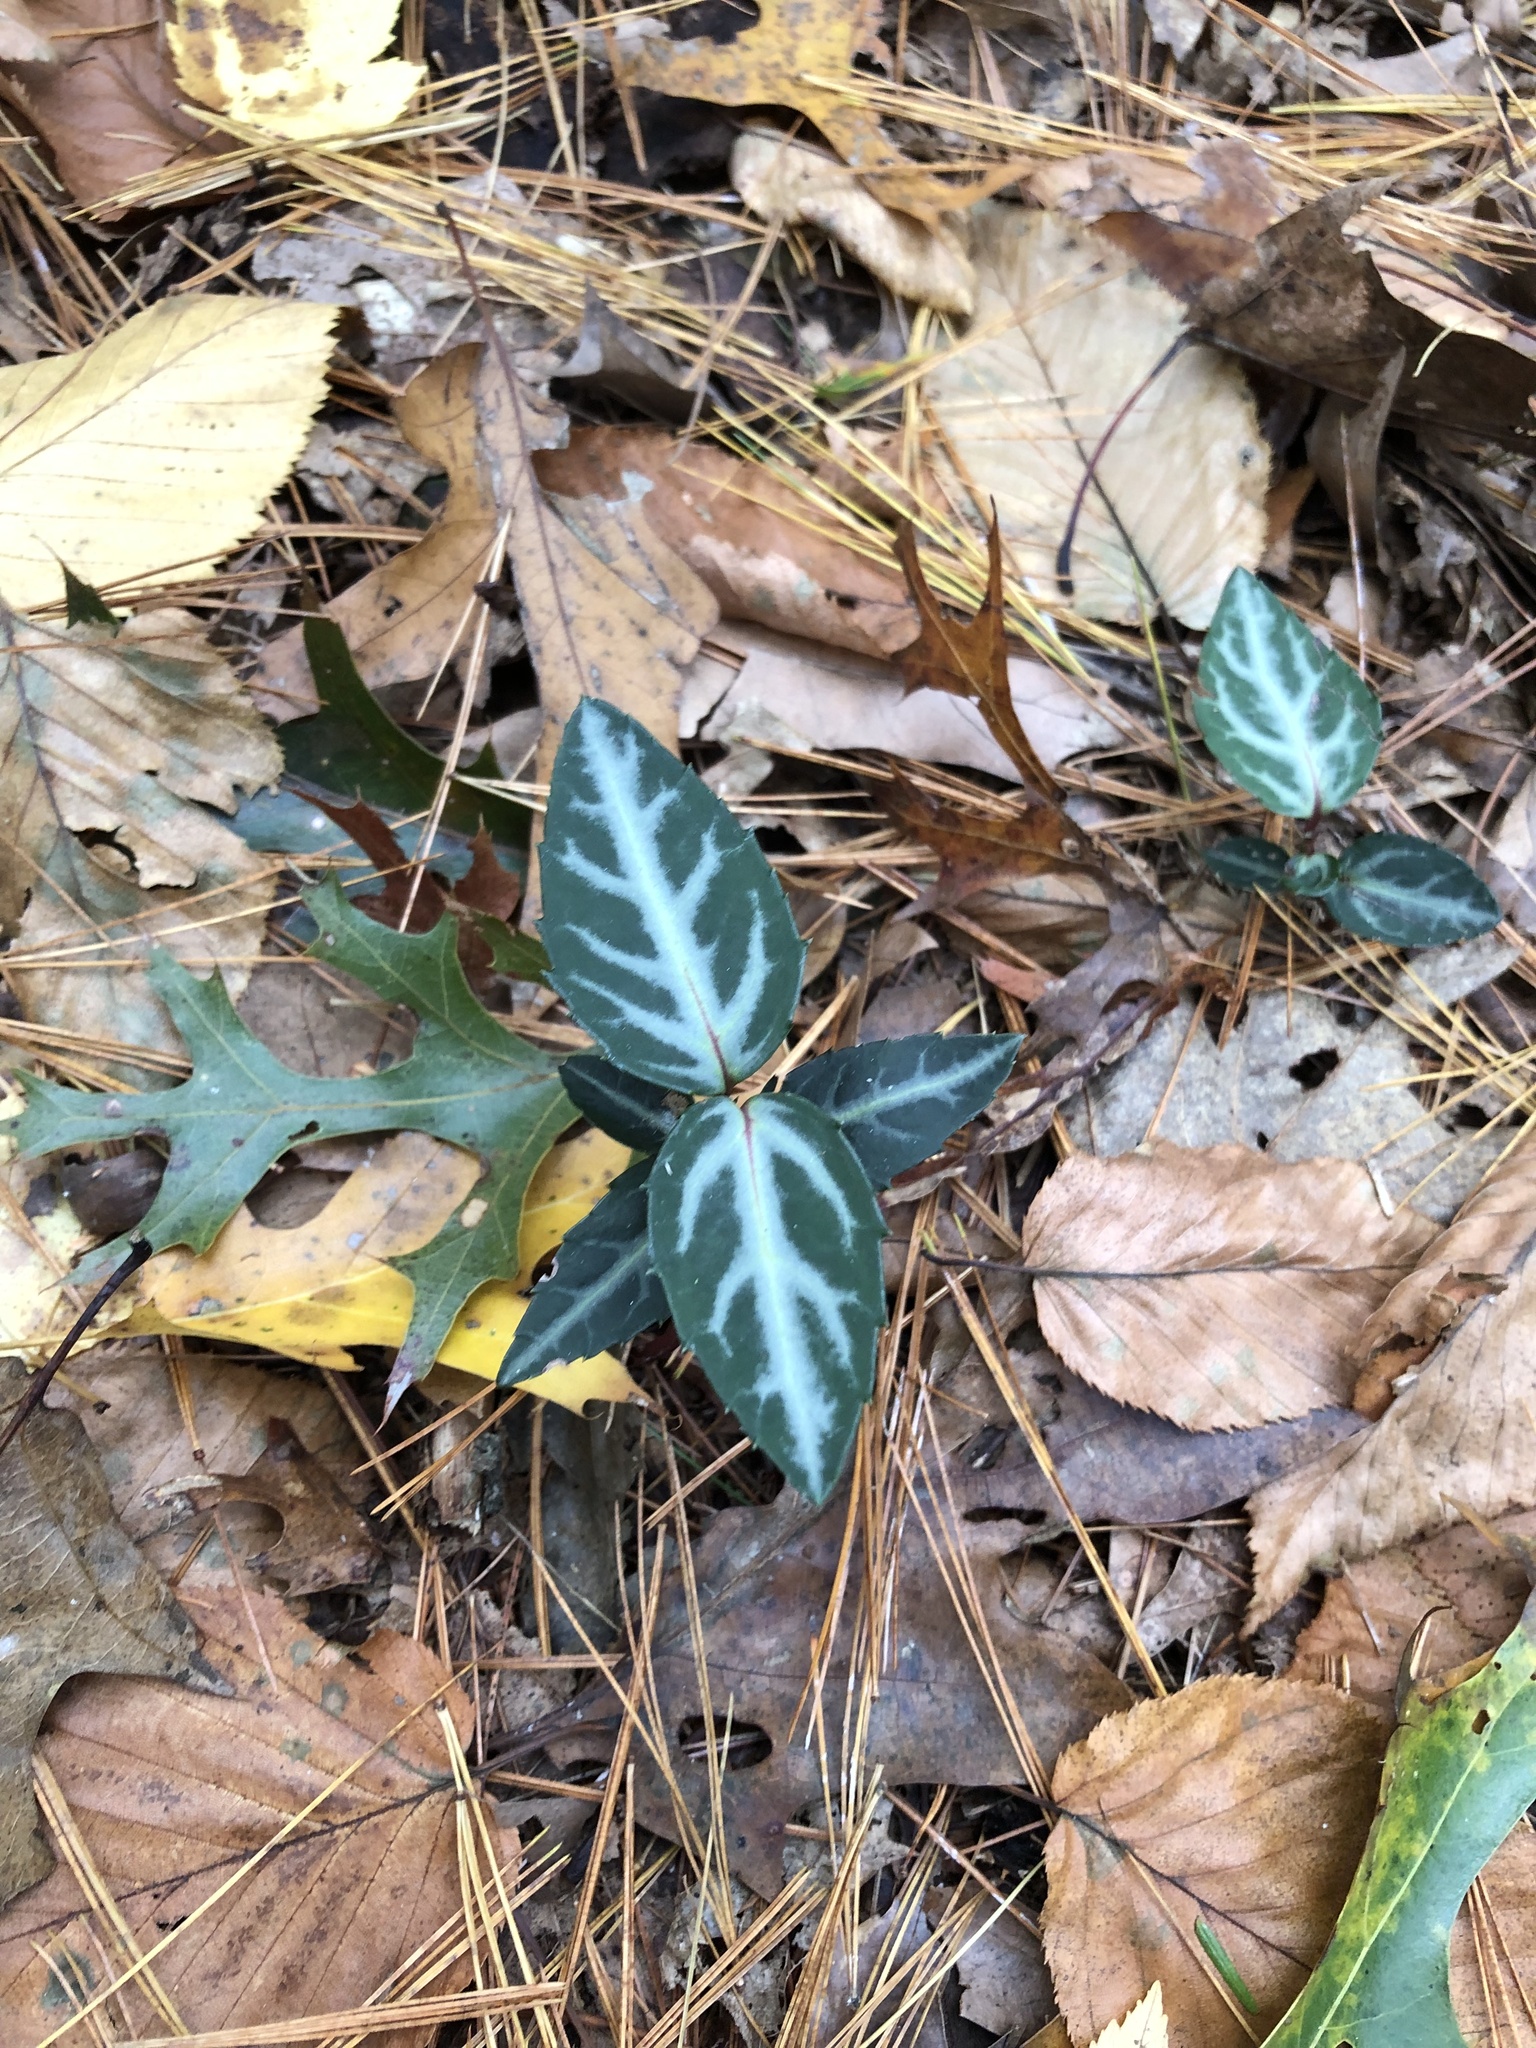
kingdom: Plantae
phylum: Tracheophyta
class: Magnoliopsida
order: Ericales
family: Ericaceae
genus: Chimaphila
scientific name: Chimaphila maculata
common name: Spotted pipsissewa
